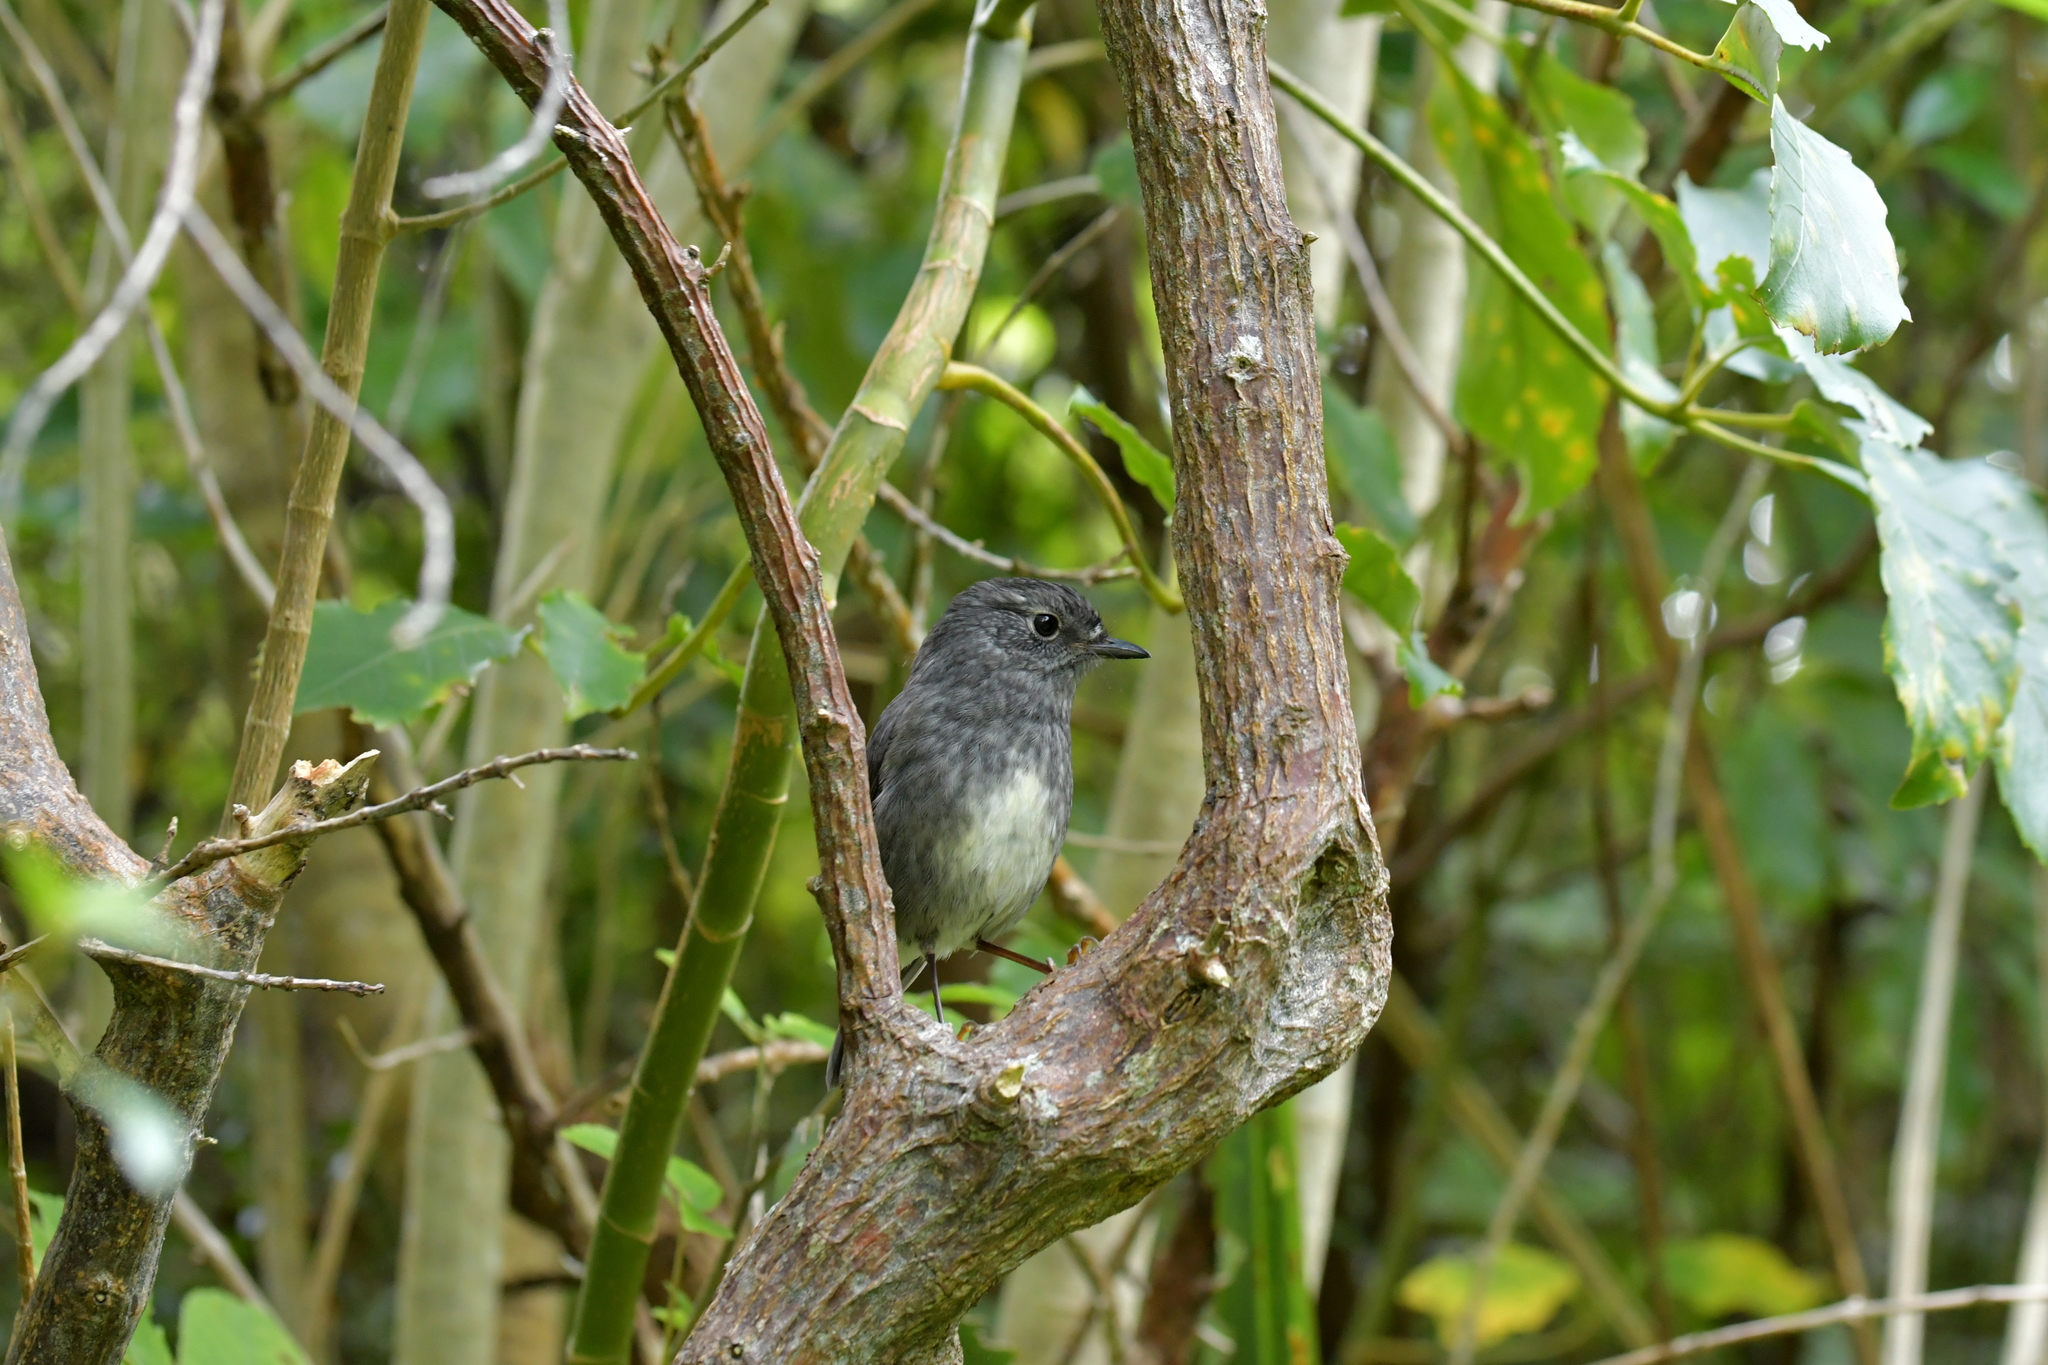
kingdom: Animalia
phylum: Chordata
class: Aves
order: Passeriformes
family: Petroicidae
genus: Petroica
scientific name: Petroica australis
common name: New zealand robin
